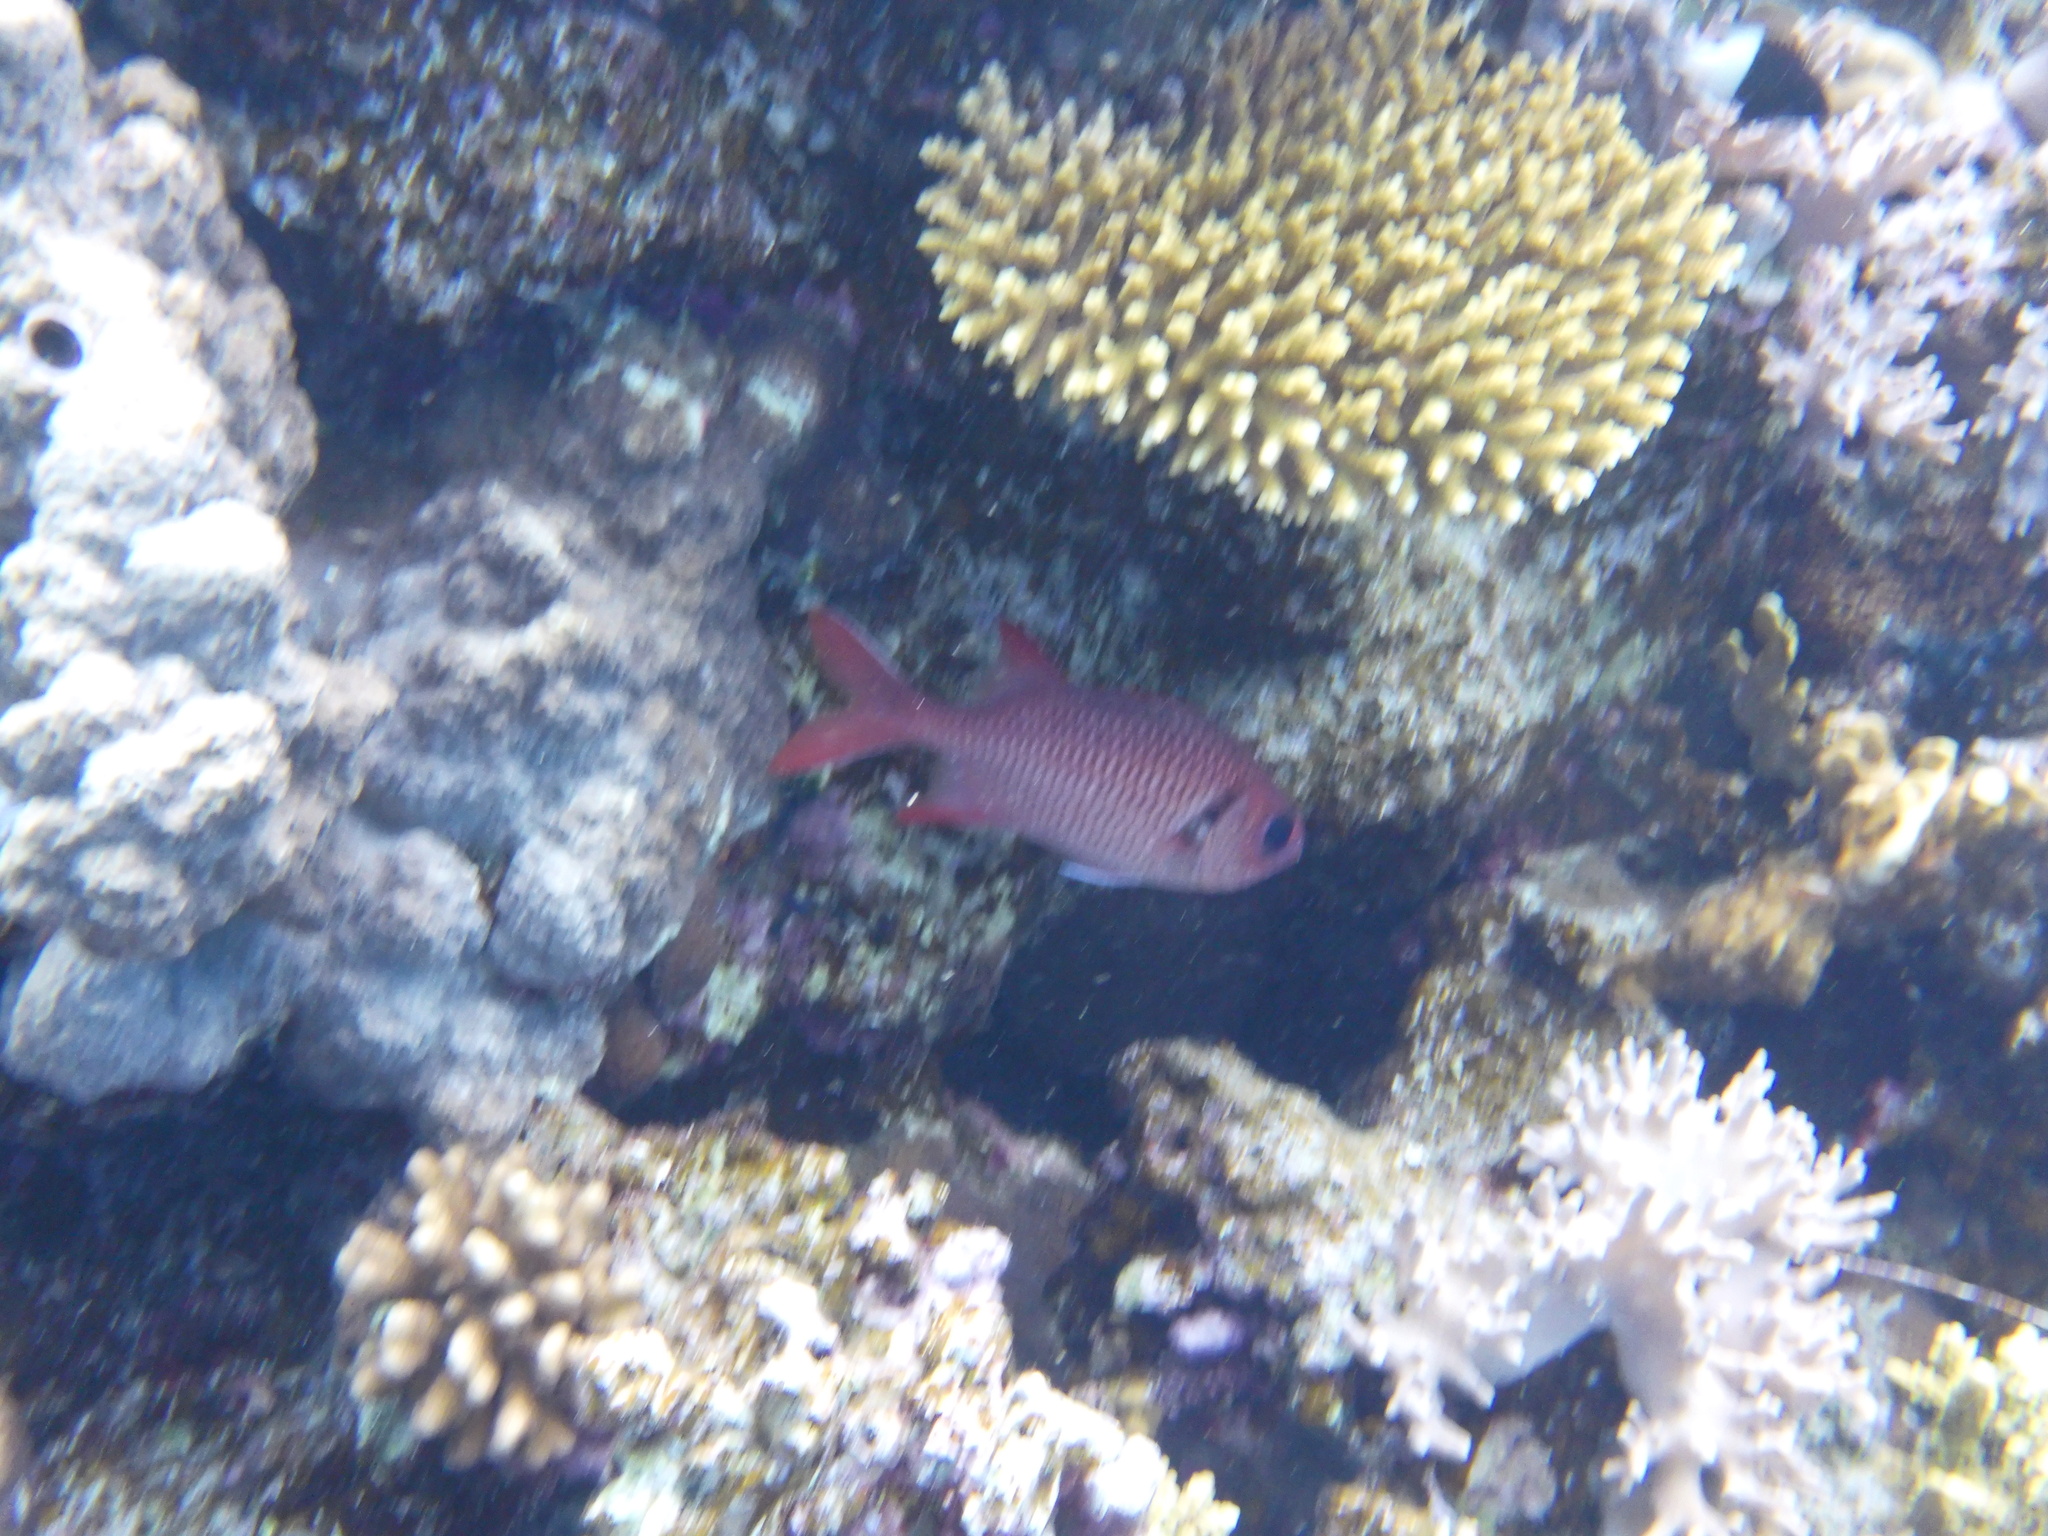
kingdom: Animalia
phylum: Chordata
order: Beryciformes
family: Holocentridae
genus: Myripristis
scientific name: Myripristis murdjan
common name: Big-eye soldierfish
